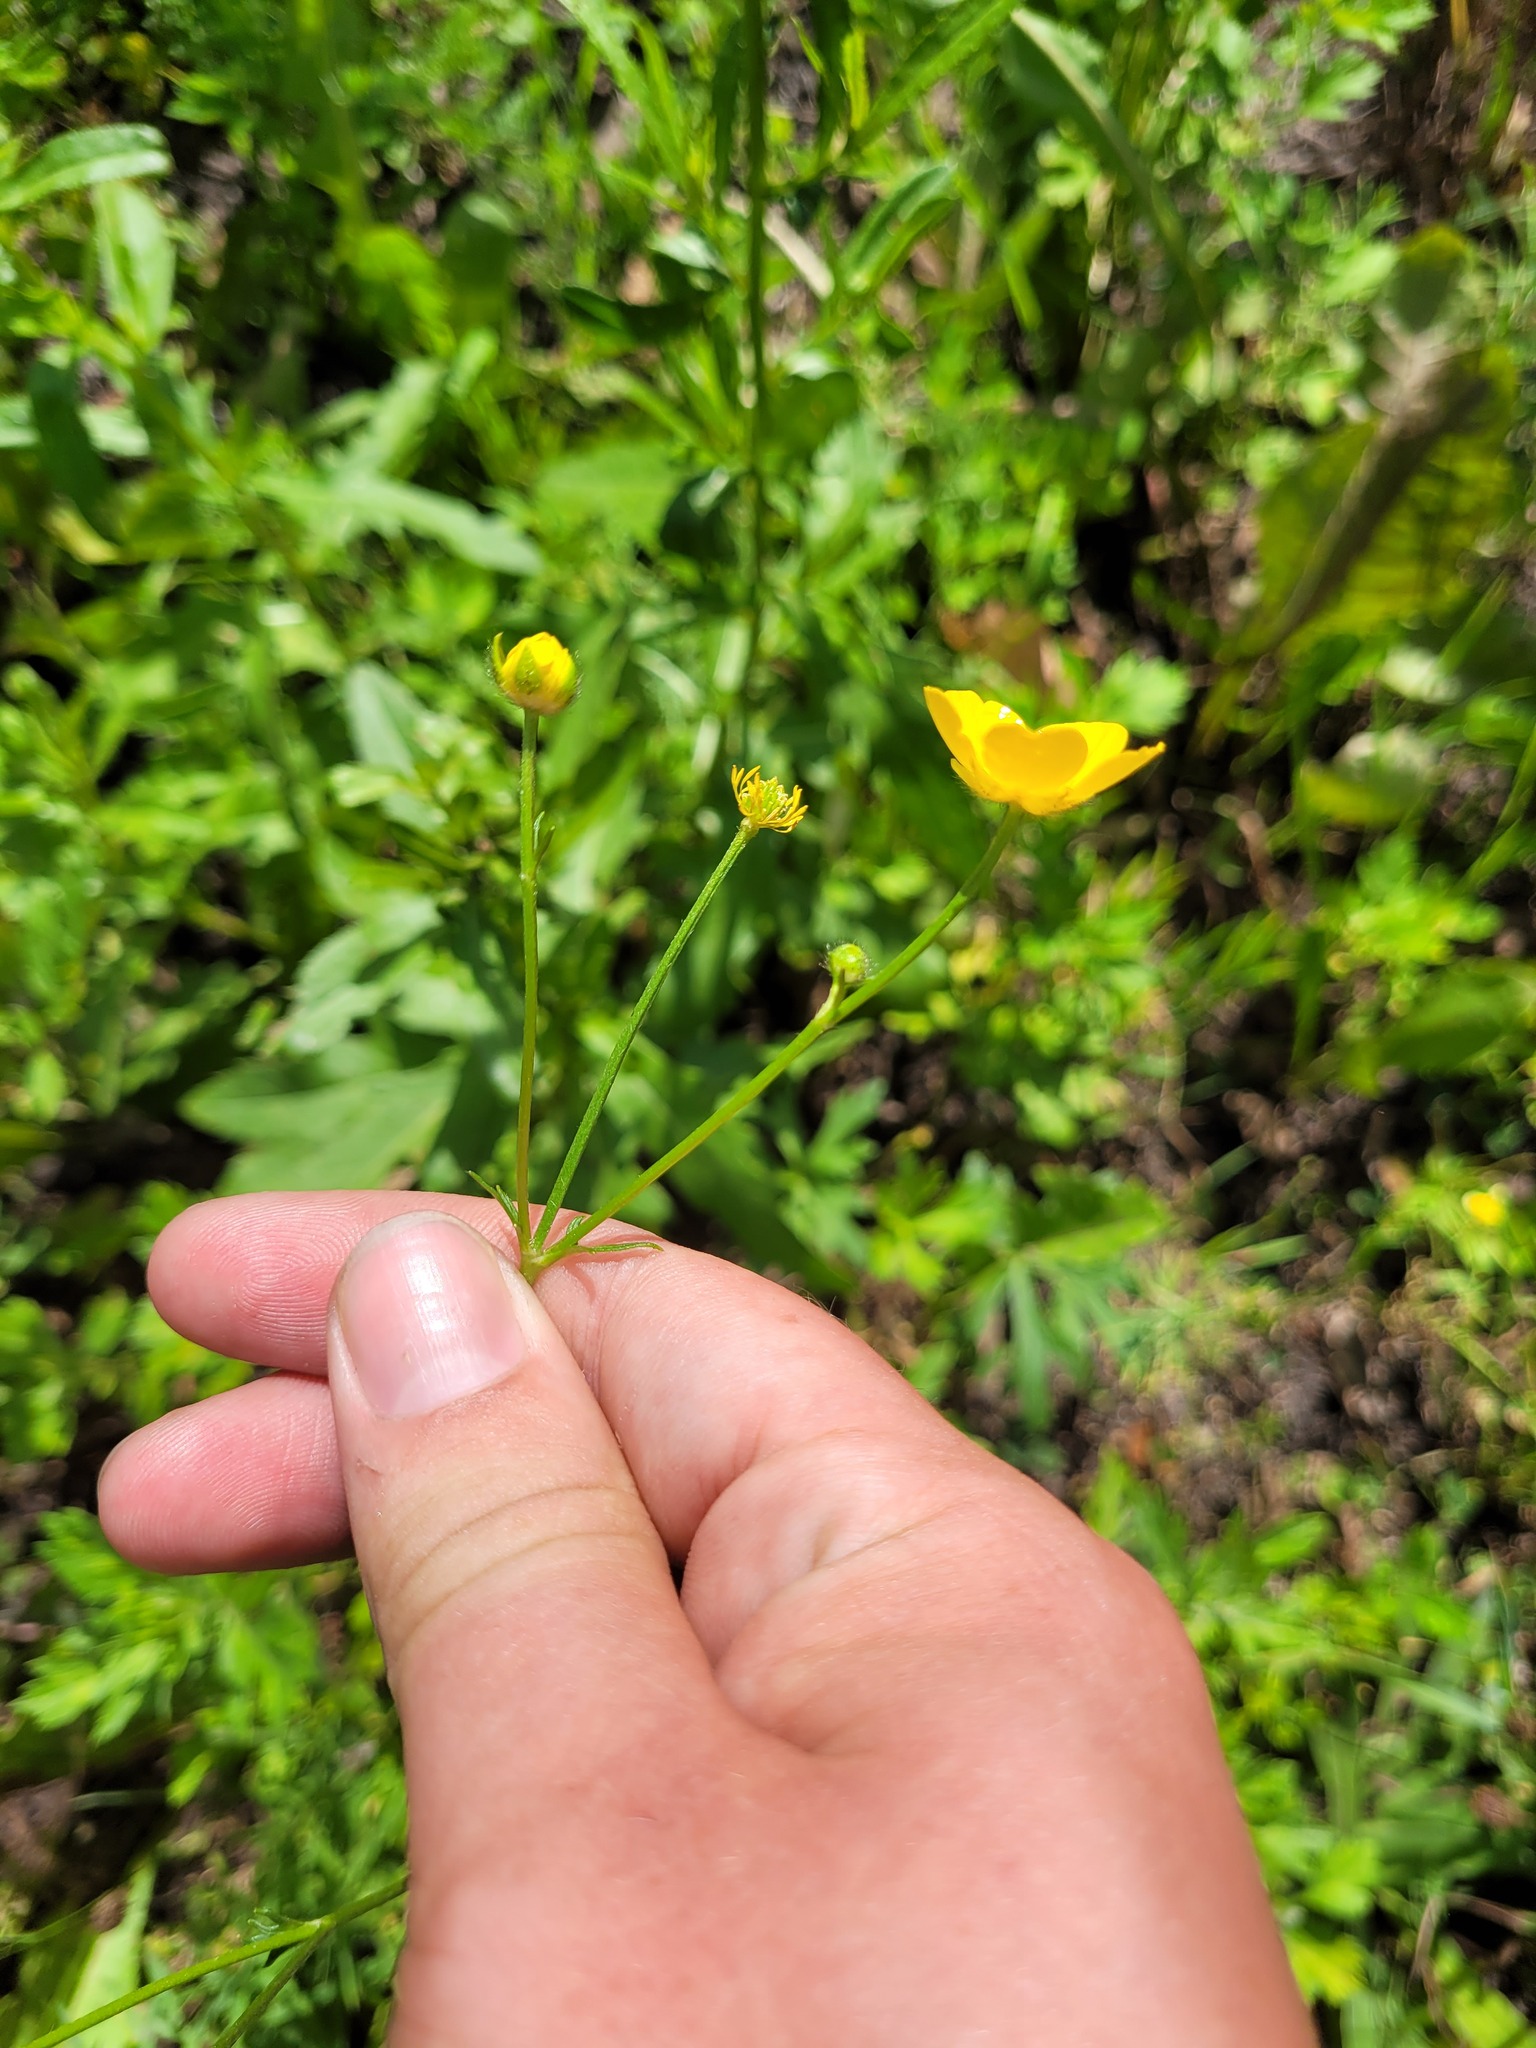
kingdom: Plantae
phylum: Tracheophyta
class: Magnoliopsida
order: Ranunculales
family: Ranunculaceae
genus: Ranunculus
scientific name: Ranunculus polyanthemos
